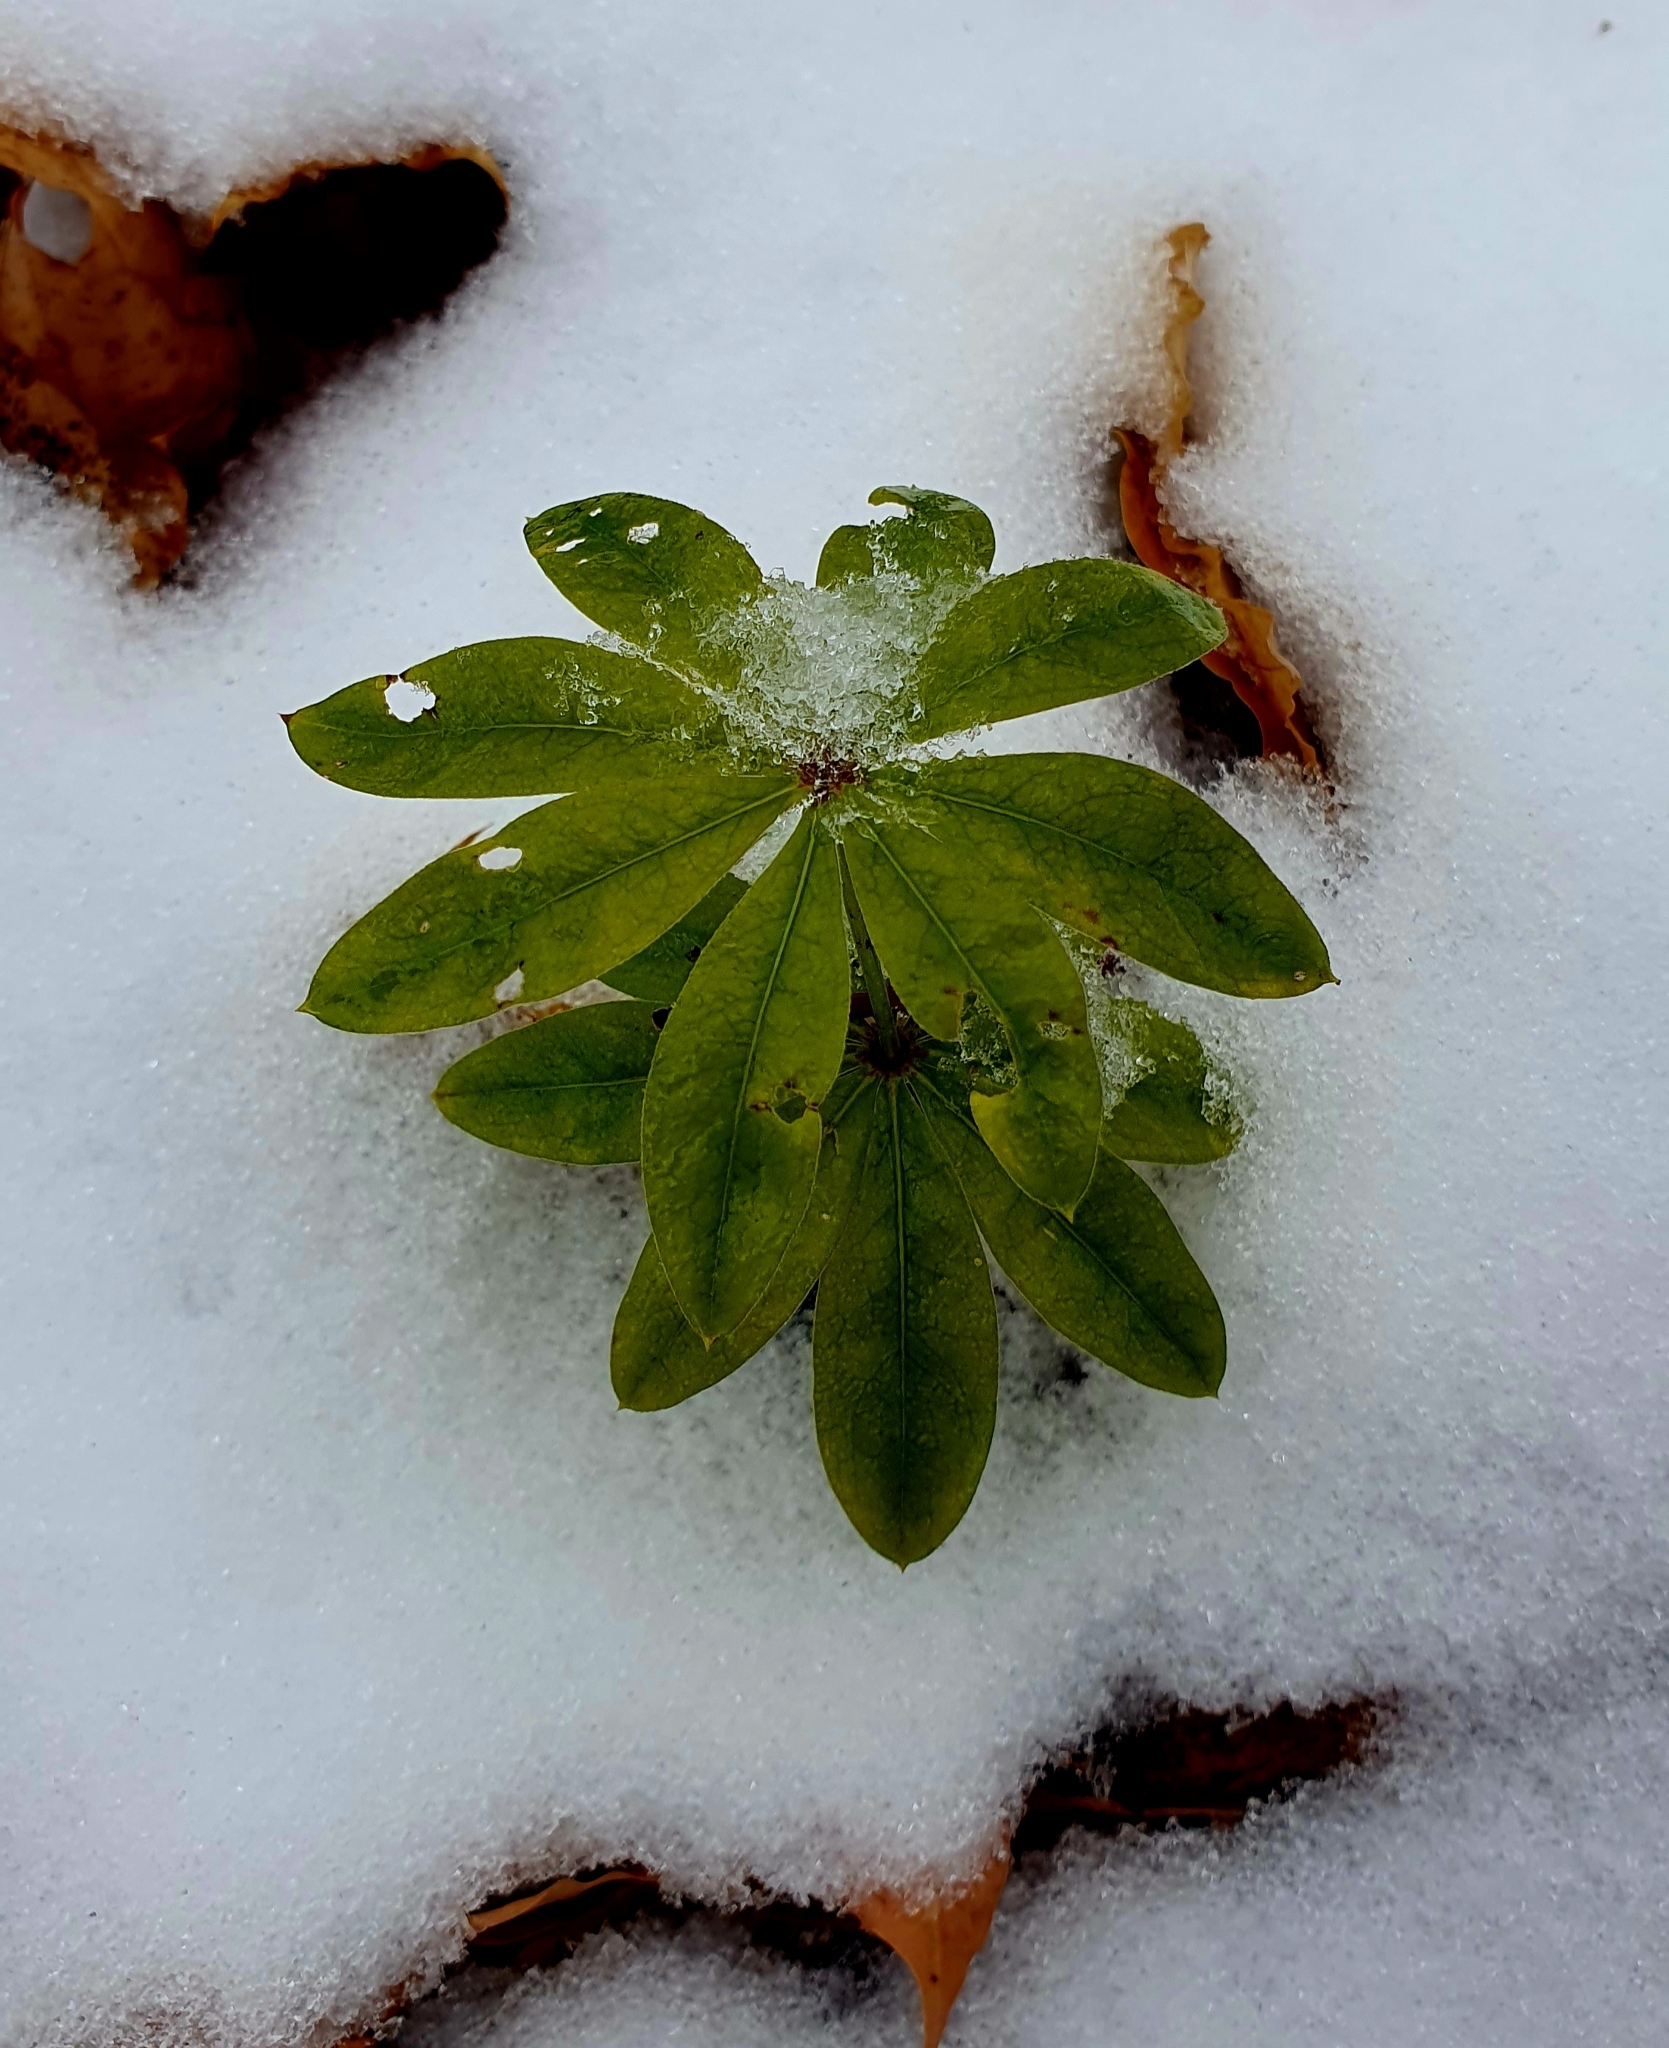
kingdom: Plantae
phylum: Tracheophyta
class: Magnoliopsida
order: Gentianales
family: Rubiaceae
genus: Galium
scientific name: Galium odoratum
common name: Sweet woodruff
